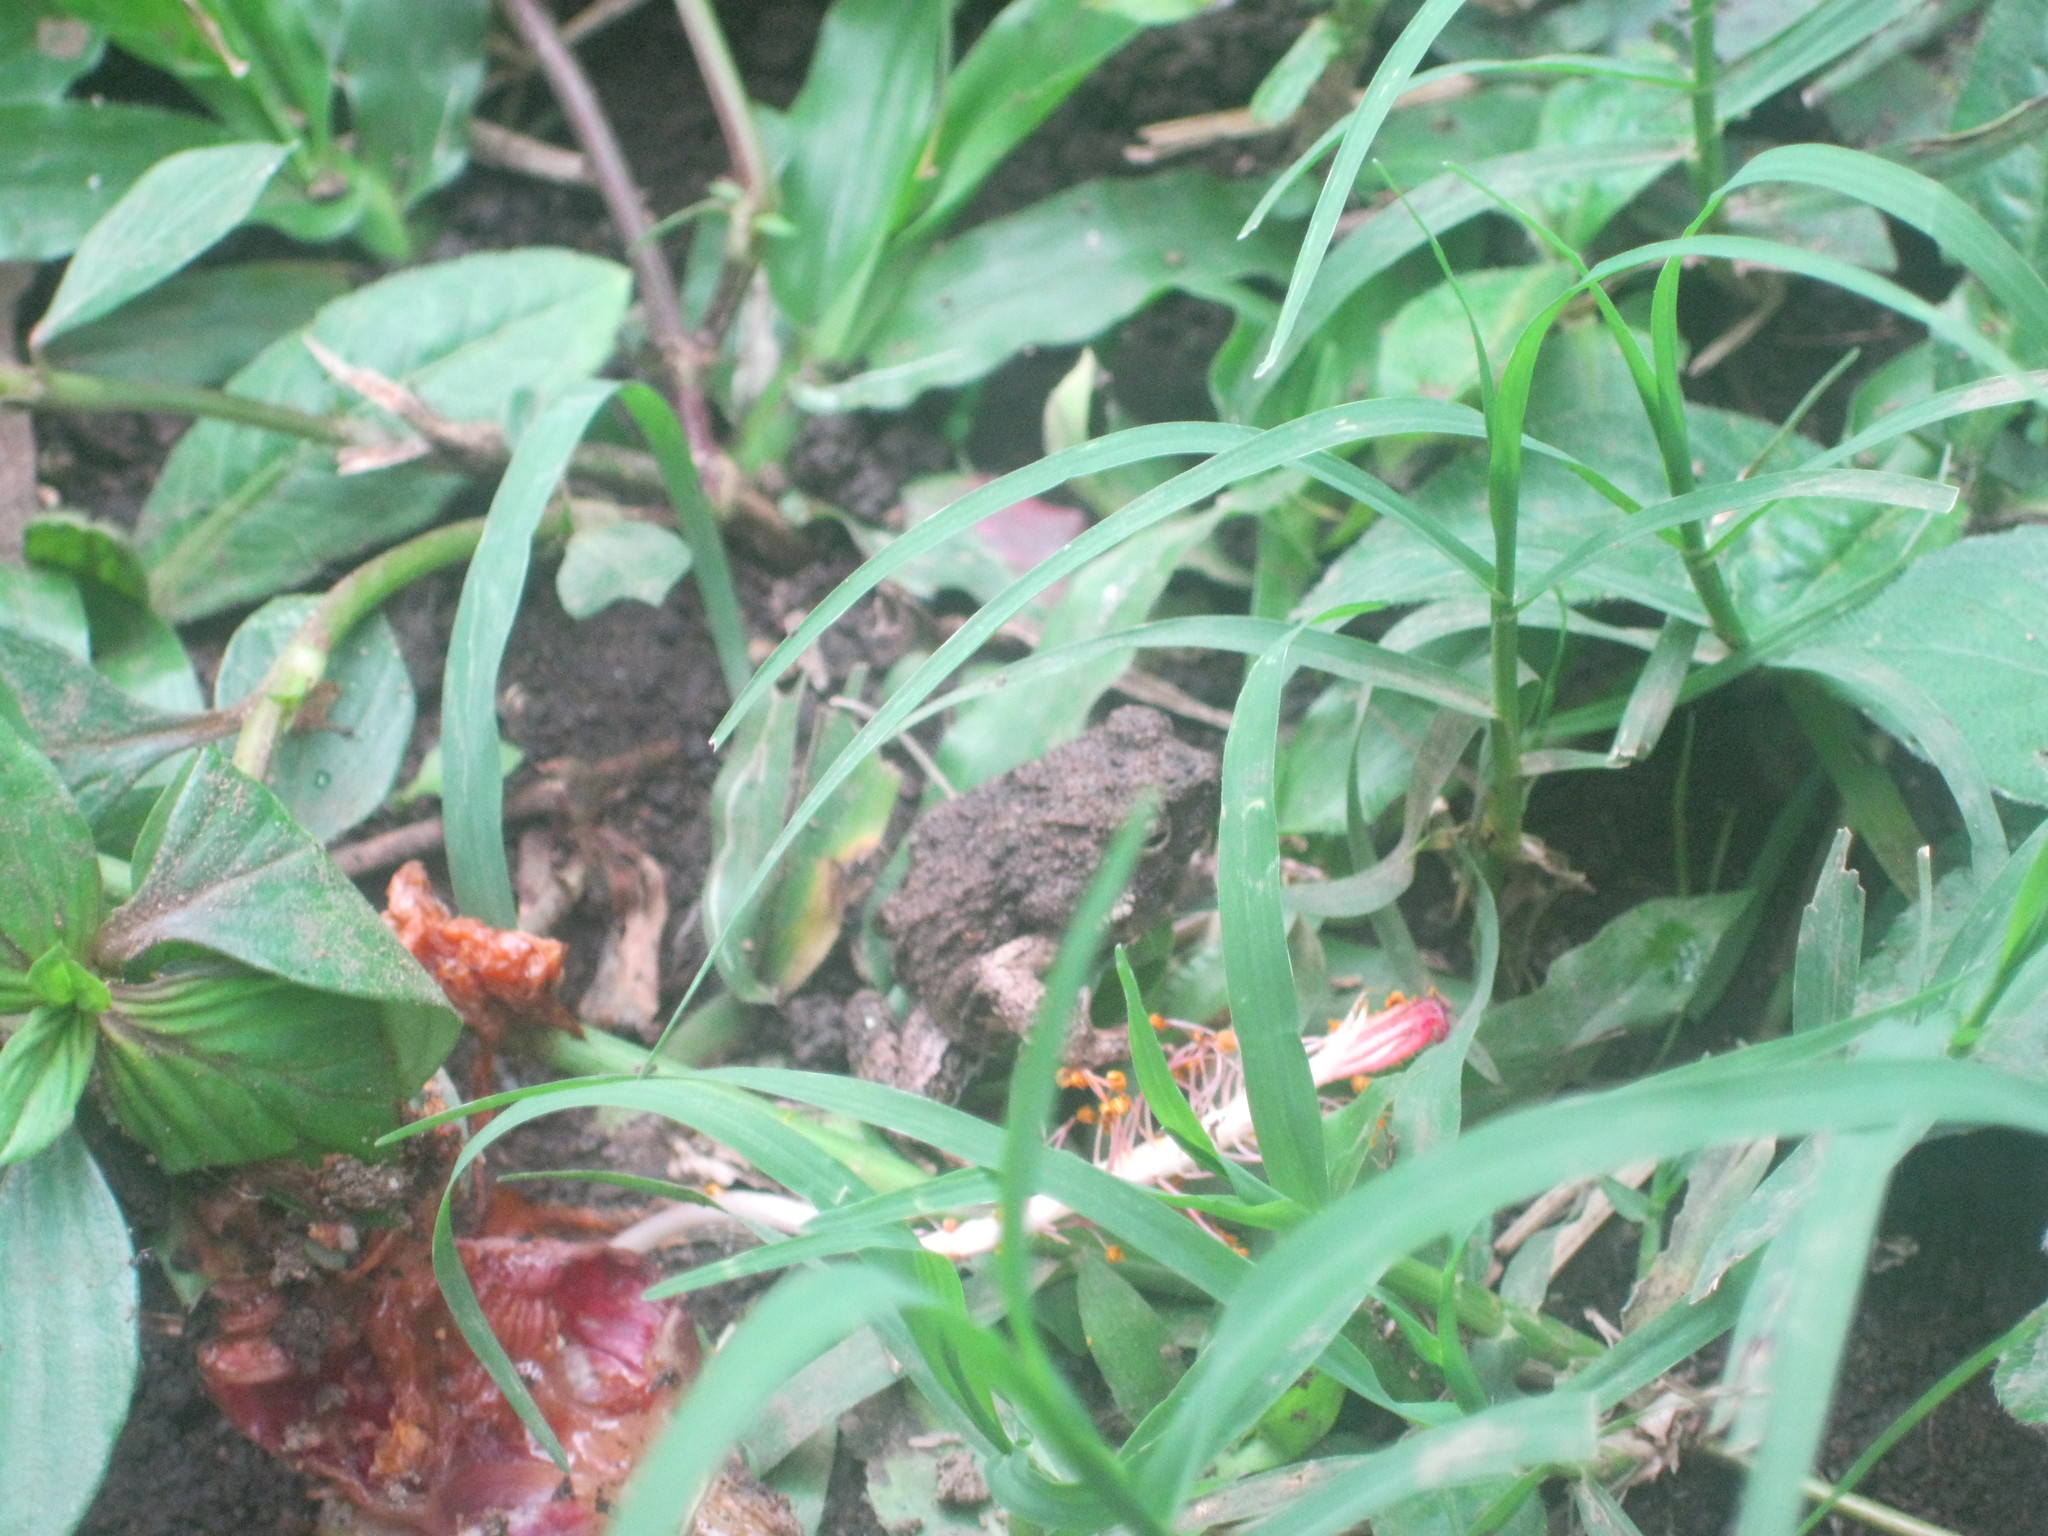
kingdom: Animalia
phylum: Chordata
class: Amphibia
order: Anura
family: Leptodactylidae
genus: Engystomops
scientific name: Engystomops pustulosus
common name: Tungara frog
